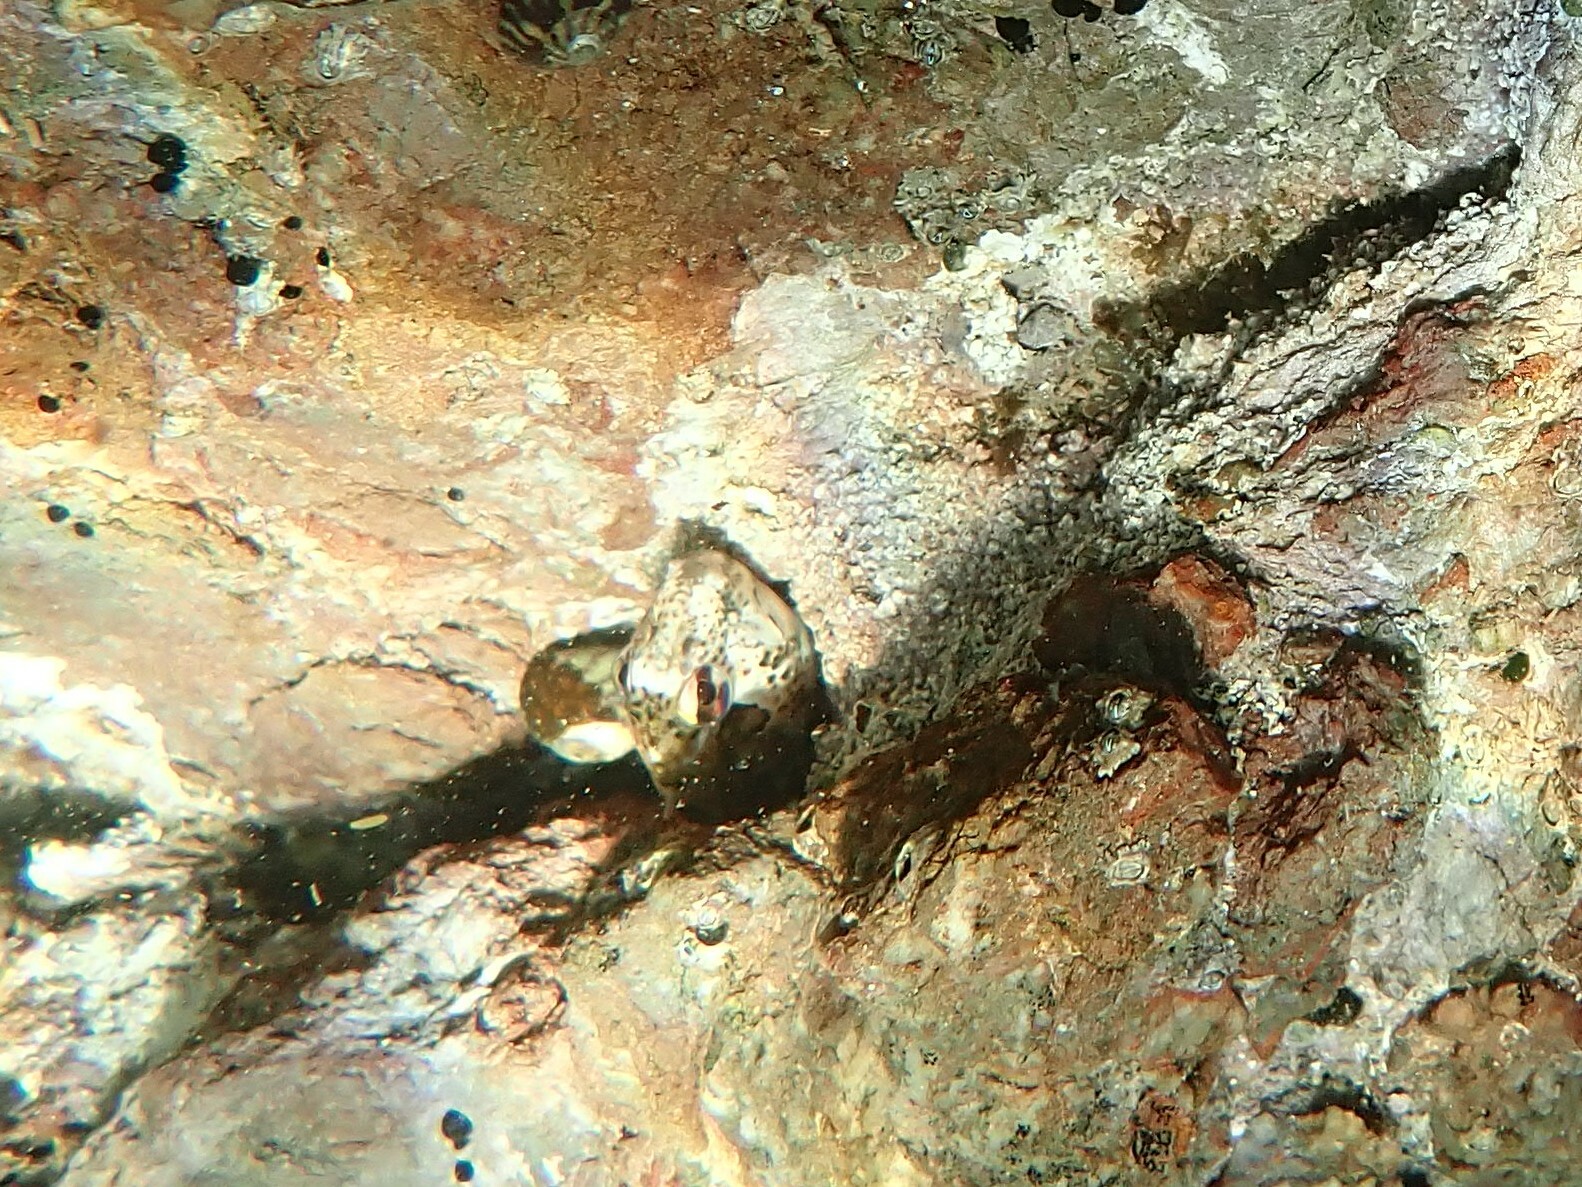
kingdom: Animalia
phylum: Chordata
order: Perciformes
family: Blenniidae
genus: Lipophrys
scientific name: Lipophrys pholis
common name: Shanny
